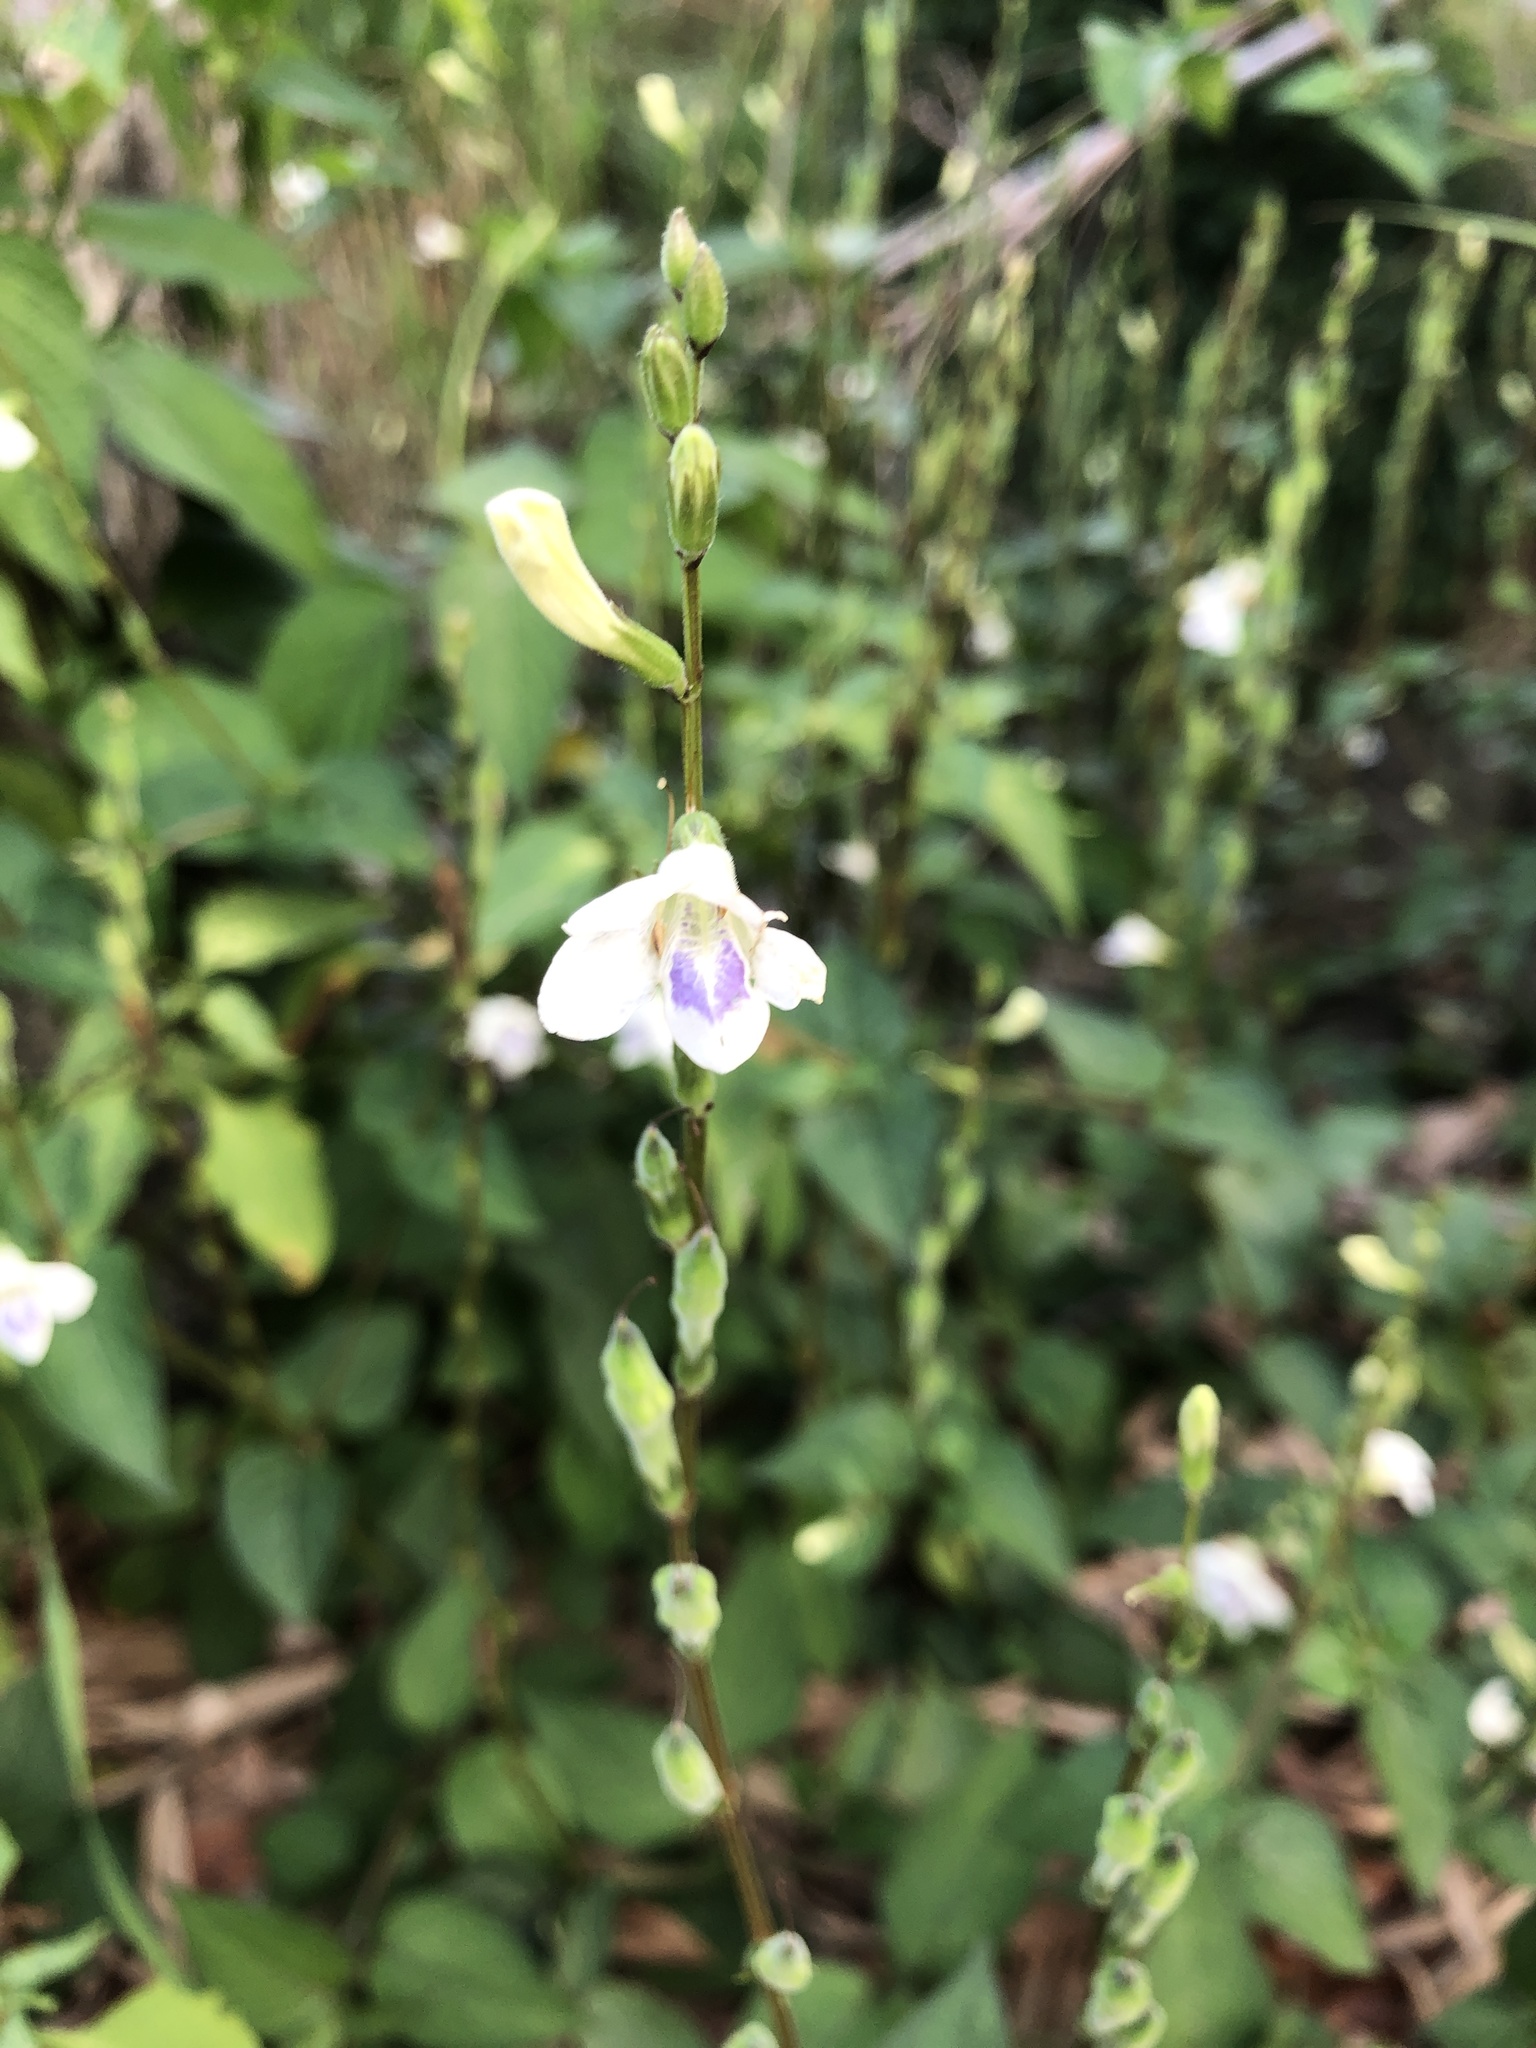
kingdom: Plantae
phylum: Tracheophyta
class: Magnoliopsida
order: Lamiales
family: Acanthaceae
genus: Asystasia
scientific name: Asystasia intrusa
